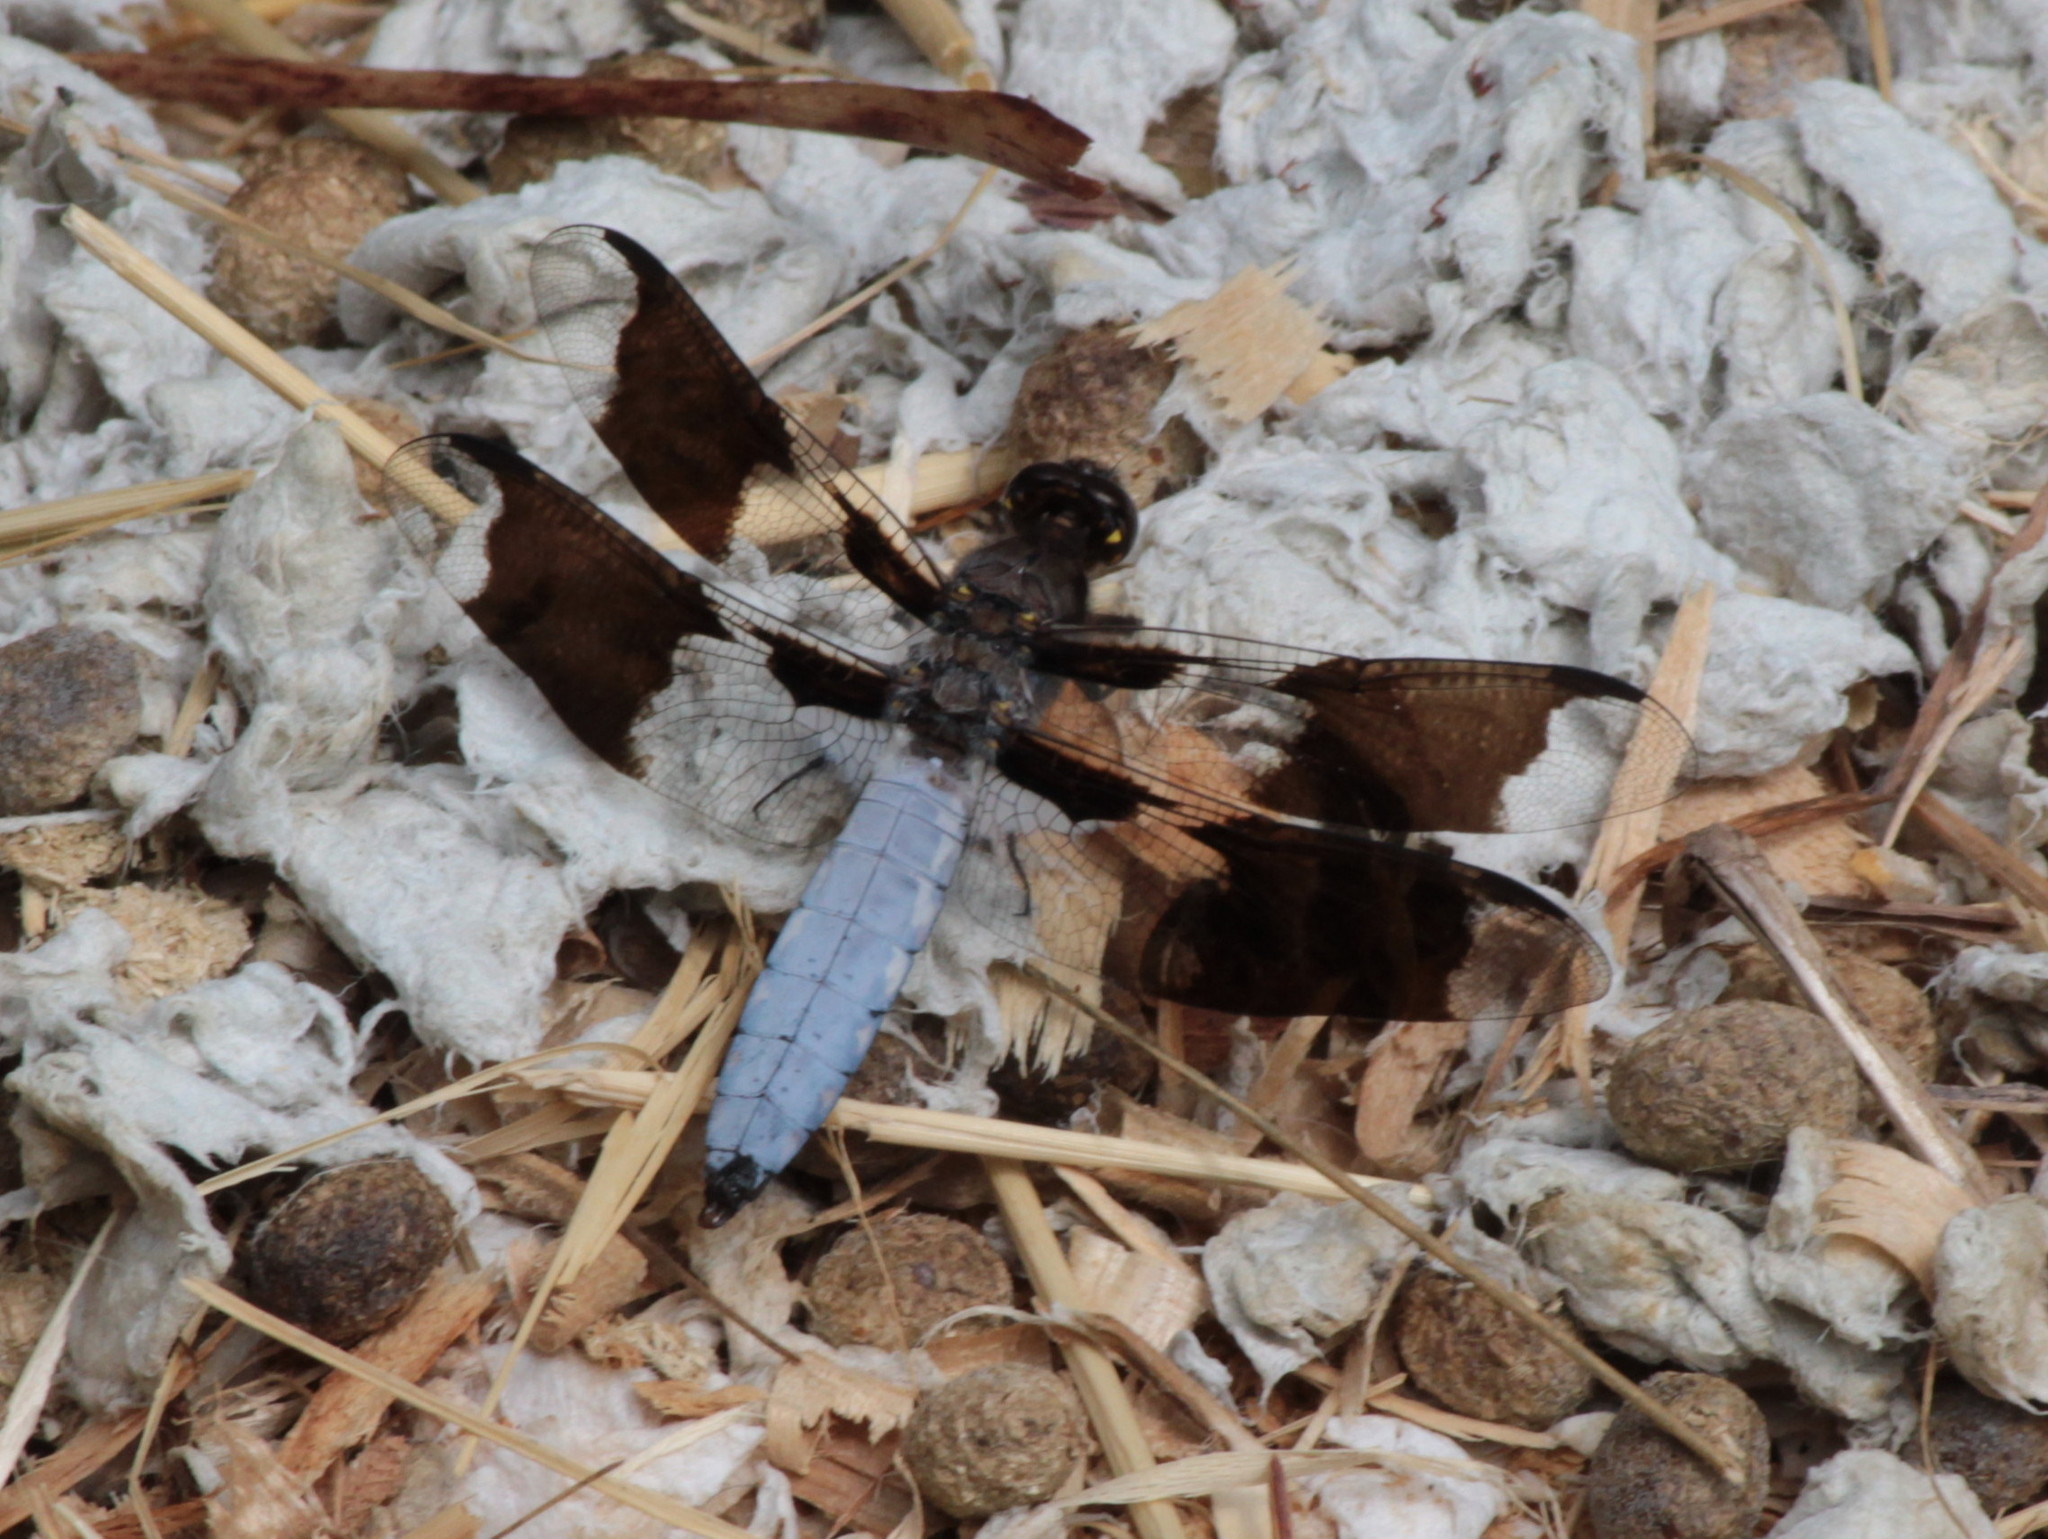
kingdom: Animalia
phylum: Arthropoda
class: Insecta
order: Odonata
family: Libellulidae
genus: Plathemis
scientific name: Plathemis lydia
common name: Common whitetail
